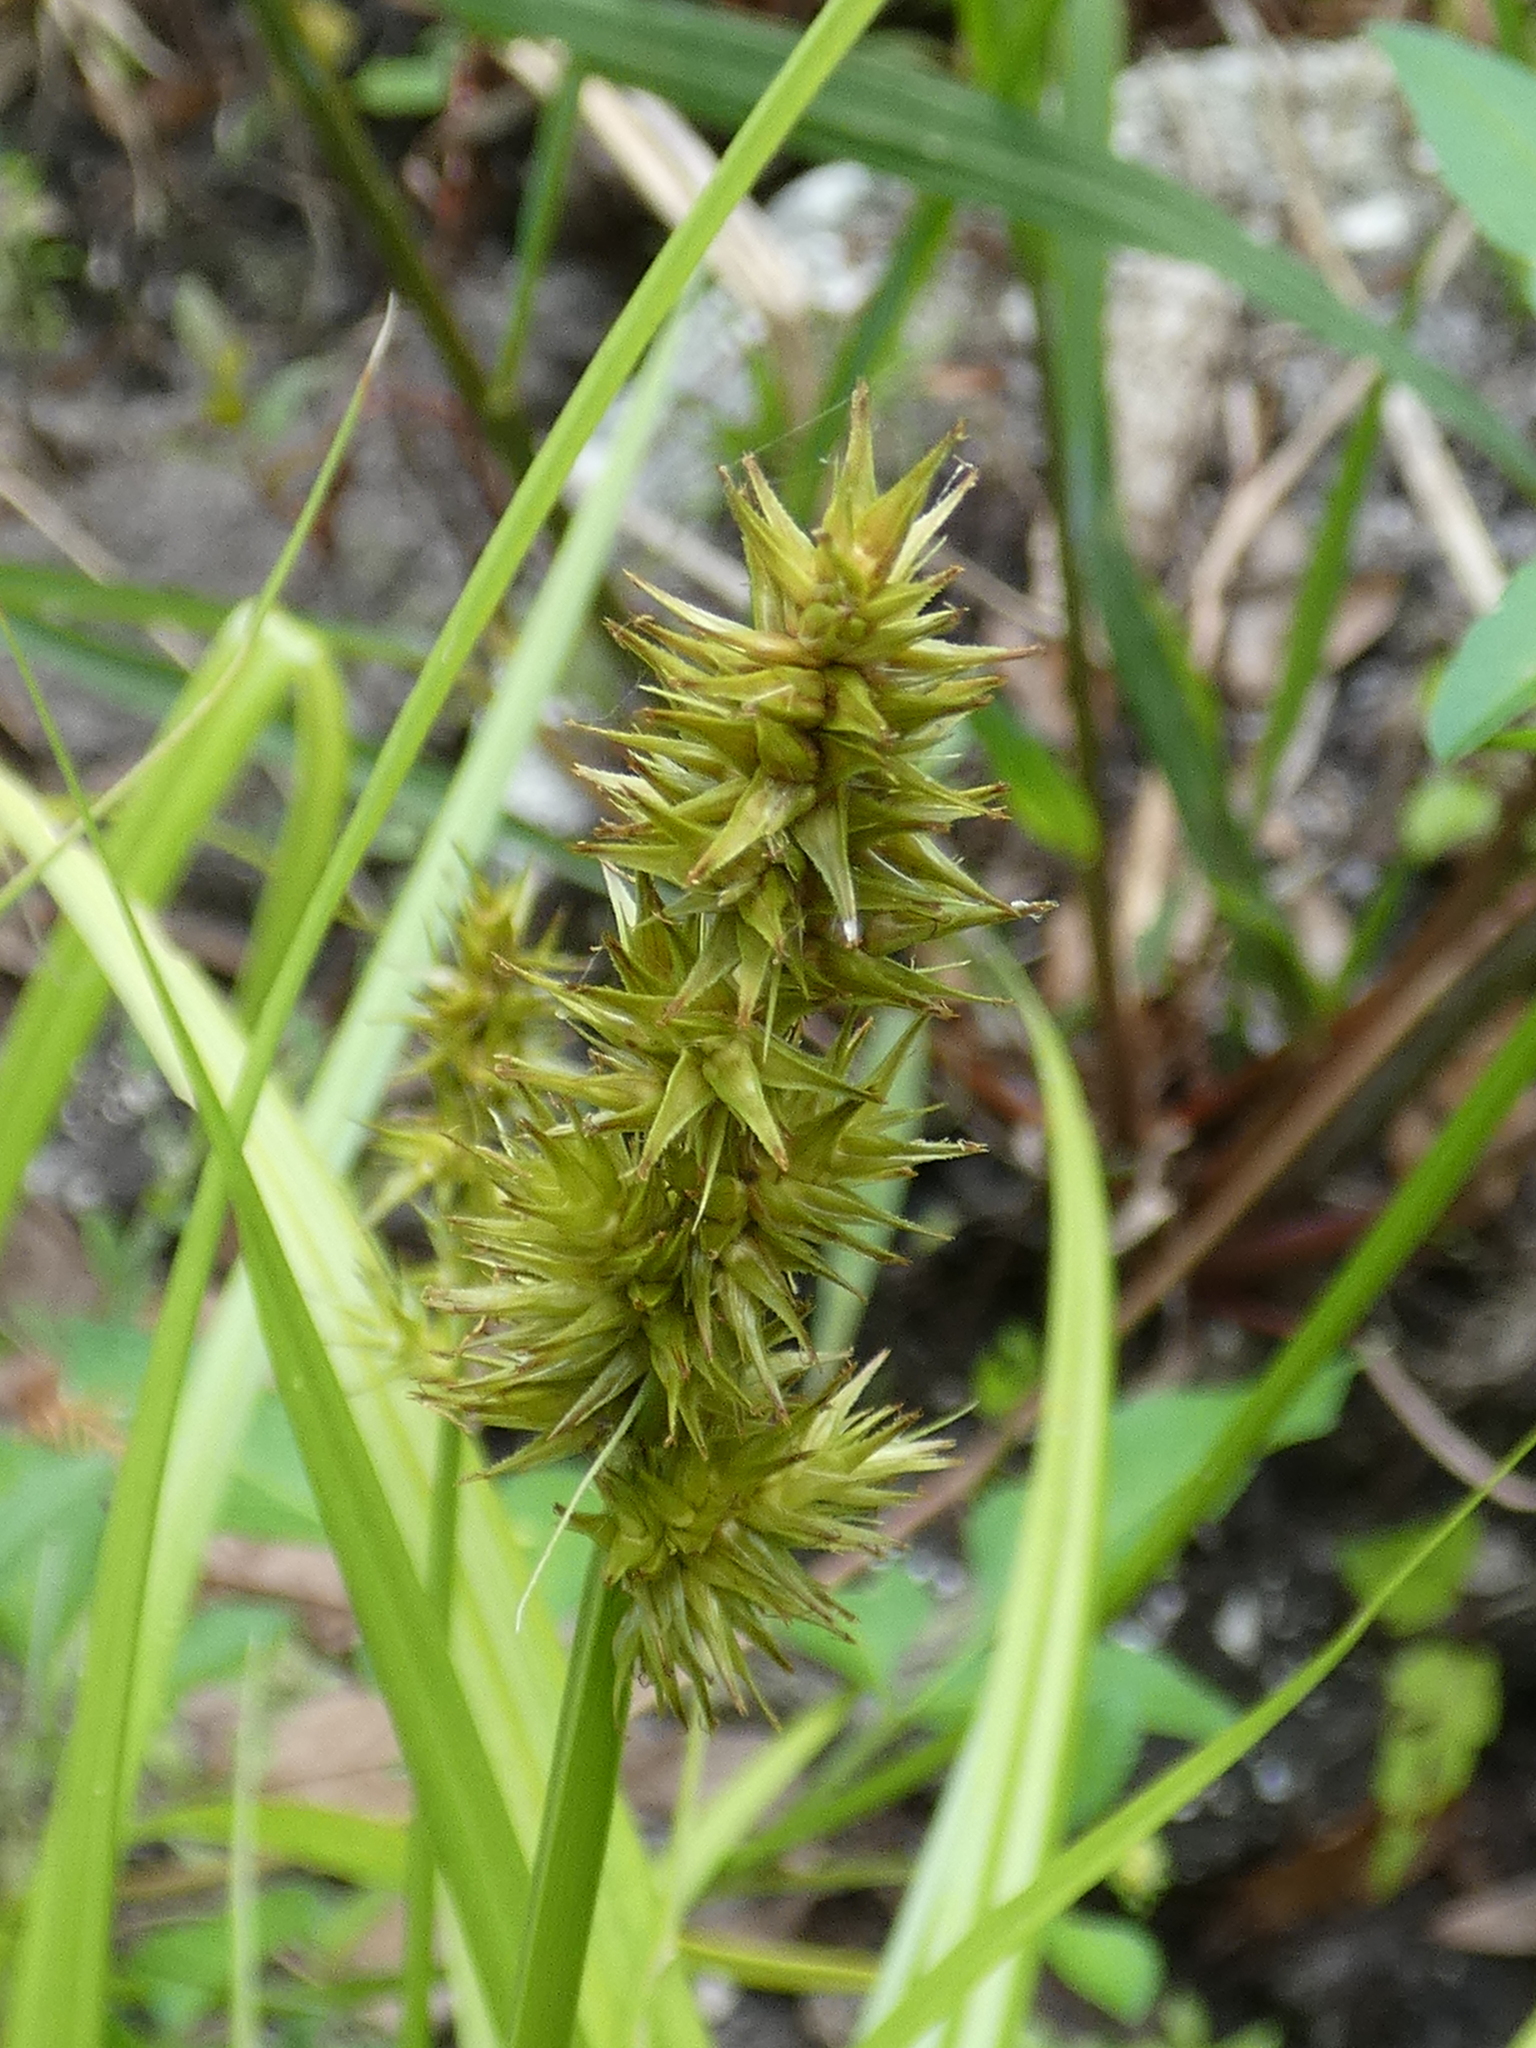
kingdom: Plantae
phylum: Tracheophyta
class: Liliopsida
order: Poales
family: Cyperaceae
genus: Carex
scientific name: Carex stipata
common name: Awl-fruited sedge
